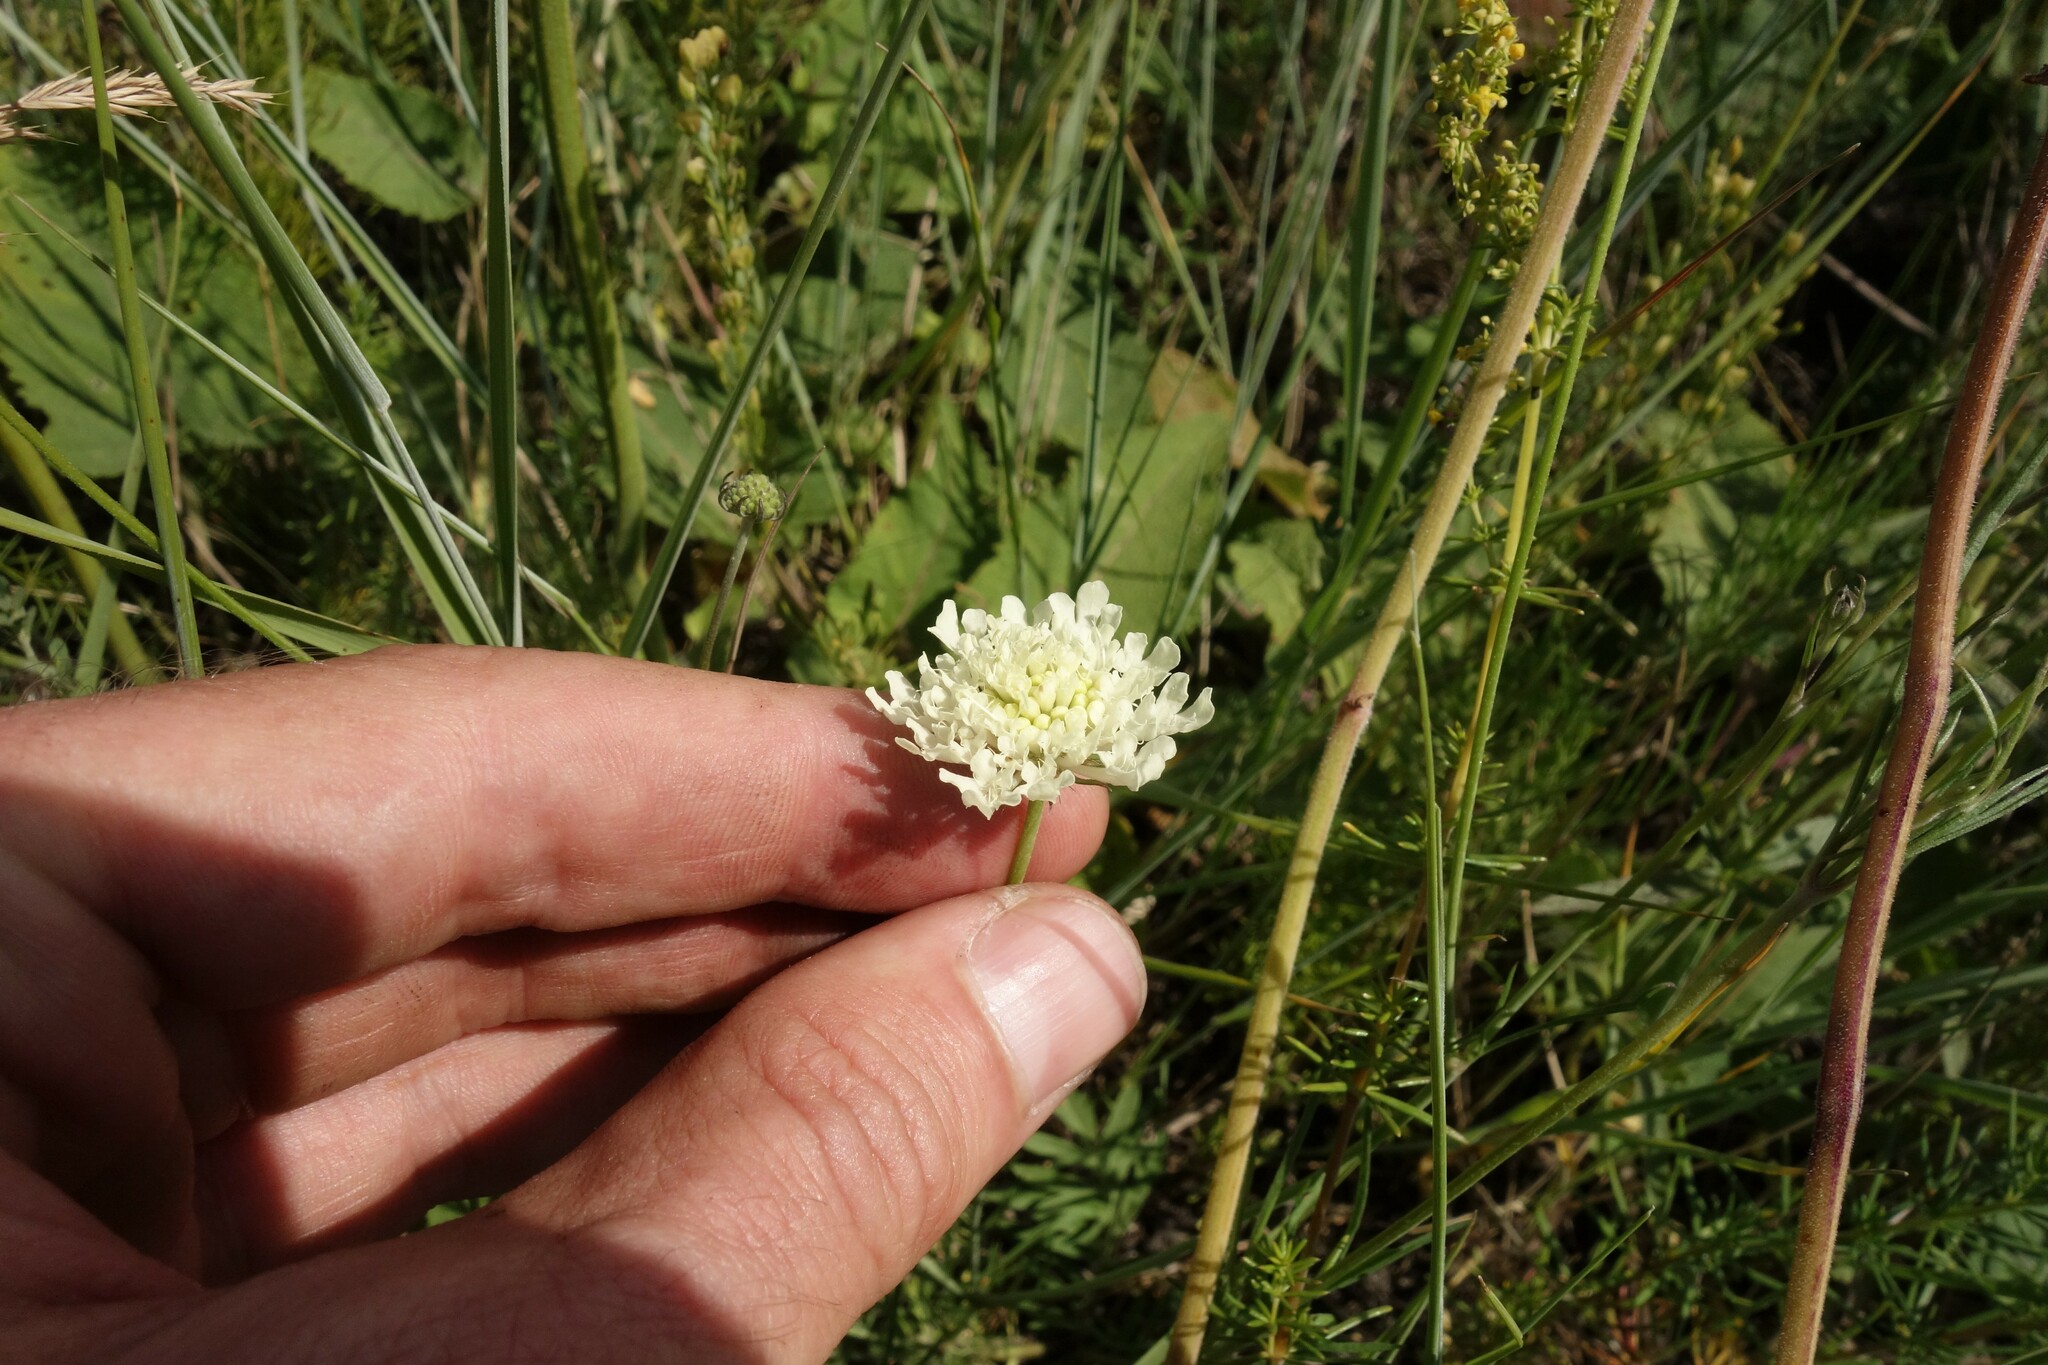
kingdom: Plantae
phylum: Tracheophyta
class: Magnoliopsida
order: Dipsacales
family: Caprifoliaceae
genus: Scabiosa
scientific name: Scabiosa ochroleuca
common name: Cream pincushions
